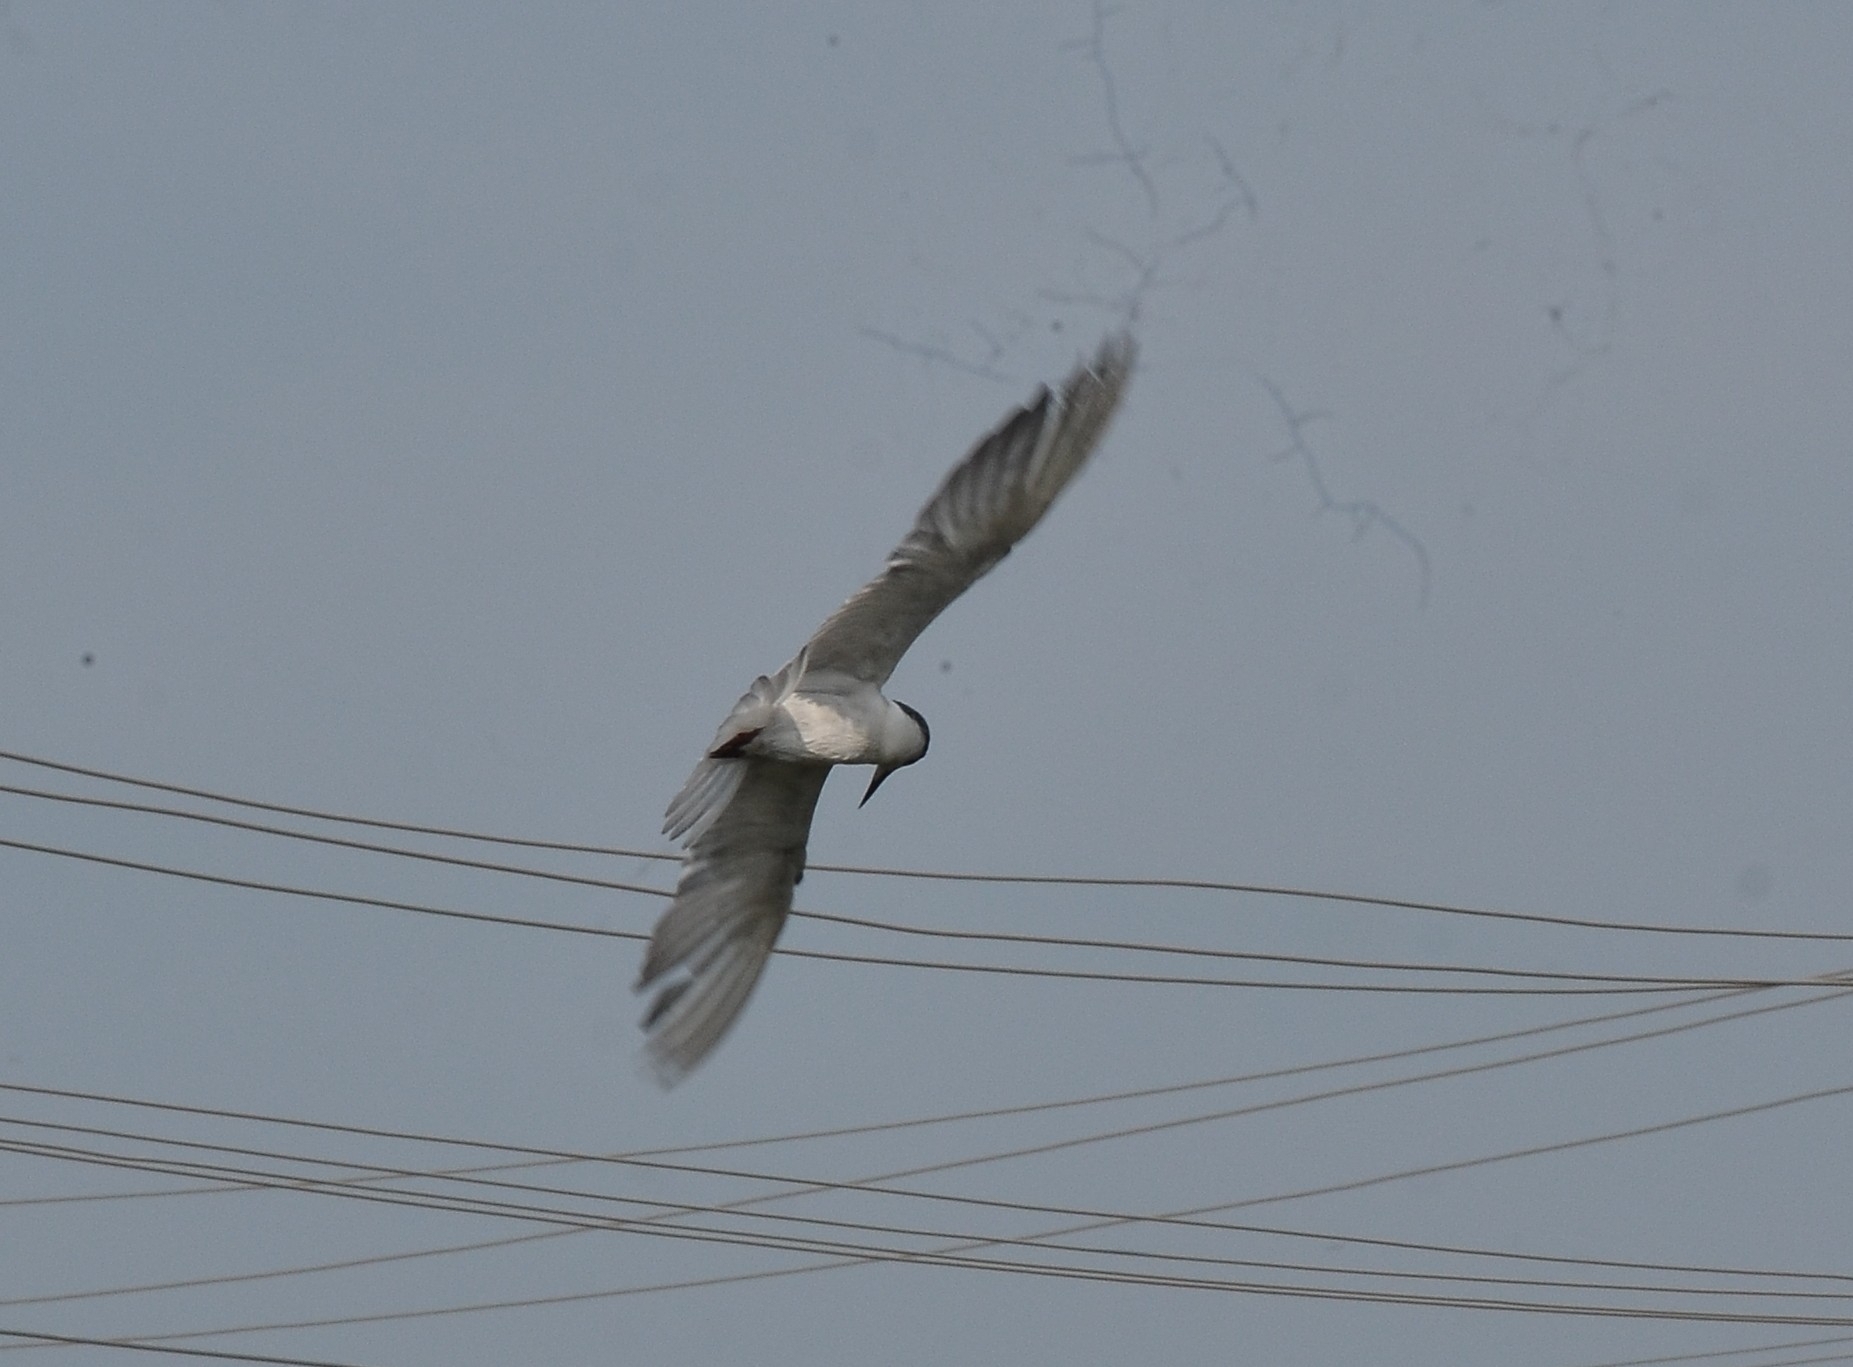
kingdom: Animalia
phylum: Chordata
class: Aves
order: Charadriiformes
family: Laridae
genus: Chlidonias
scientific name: Chlidonias hybrida
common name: Whiskered tern
